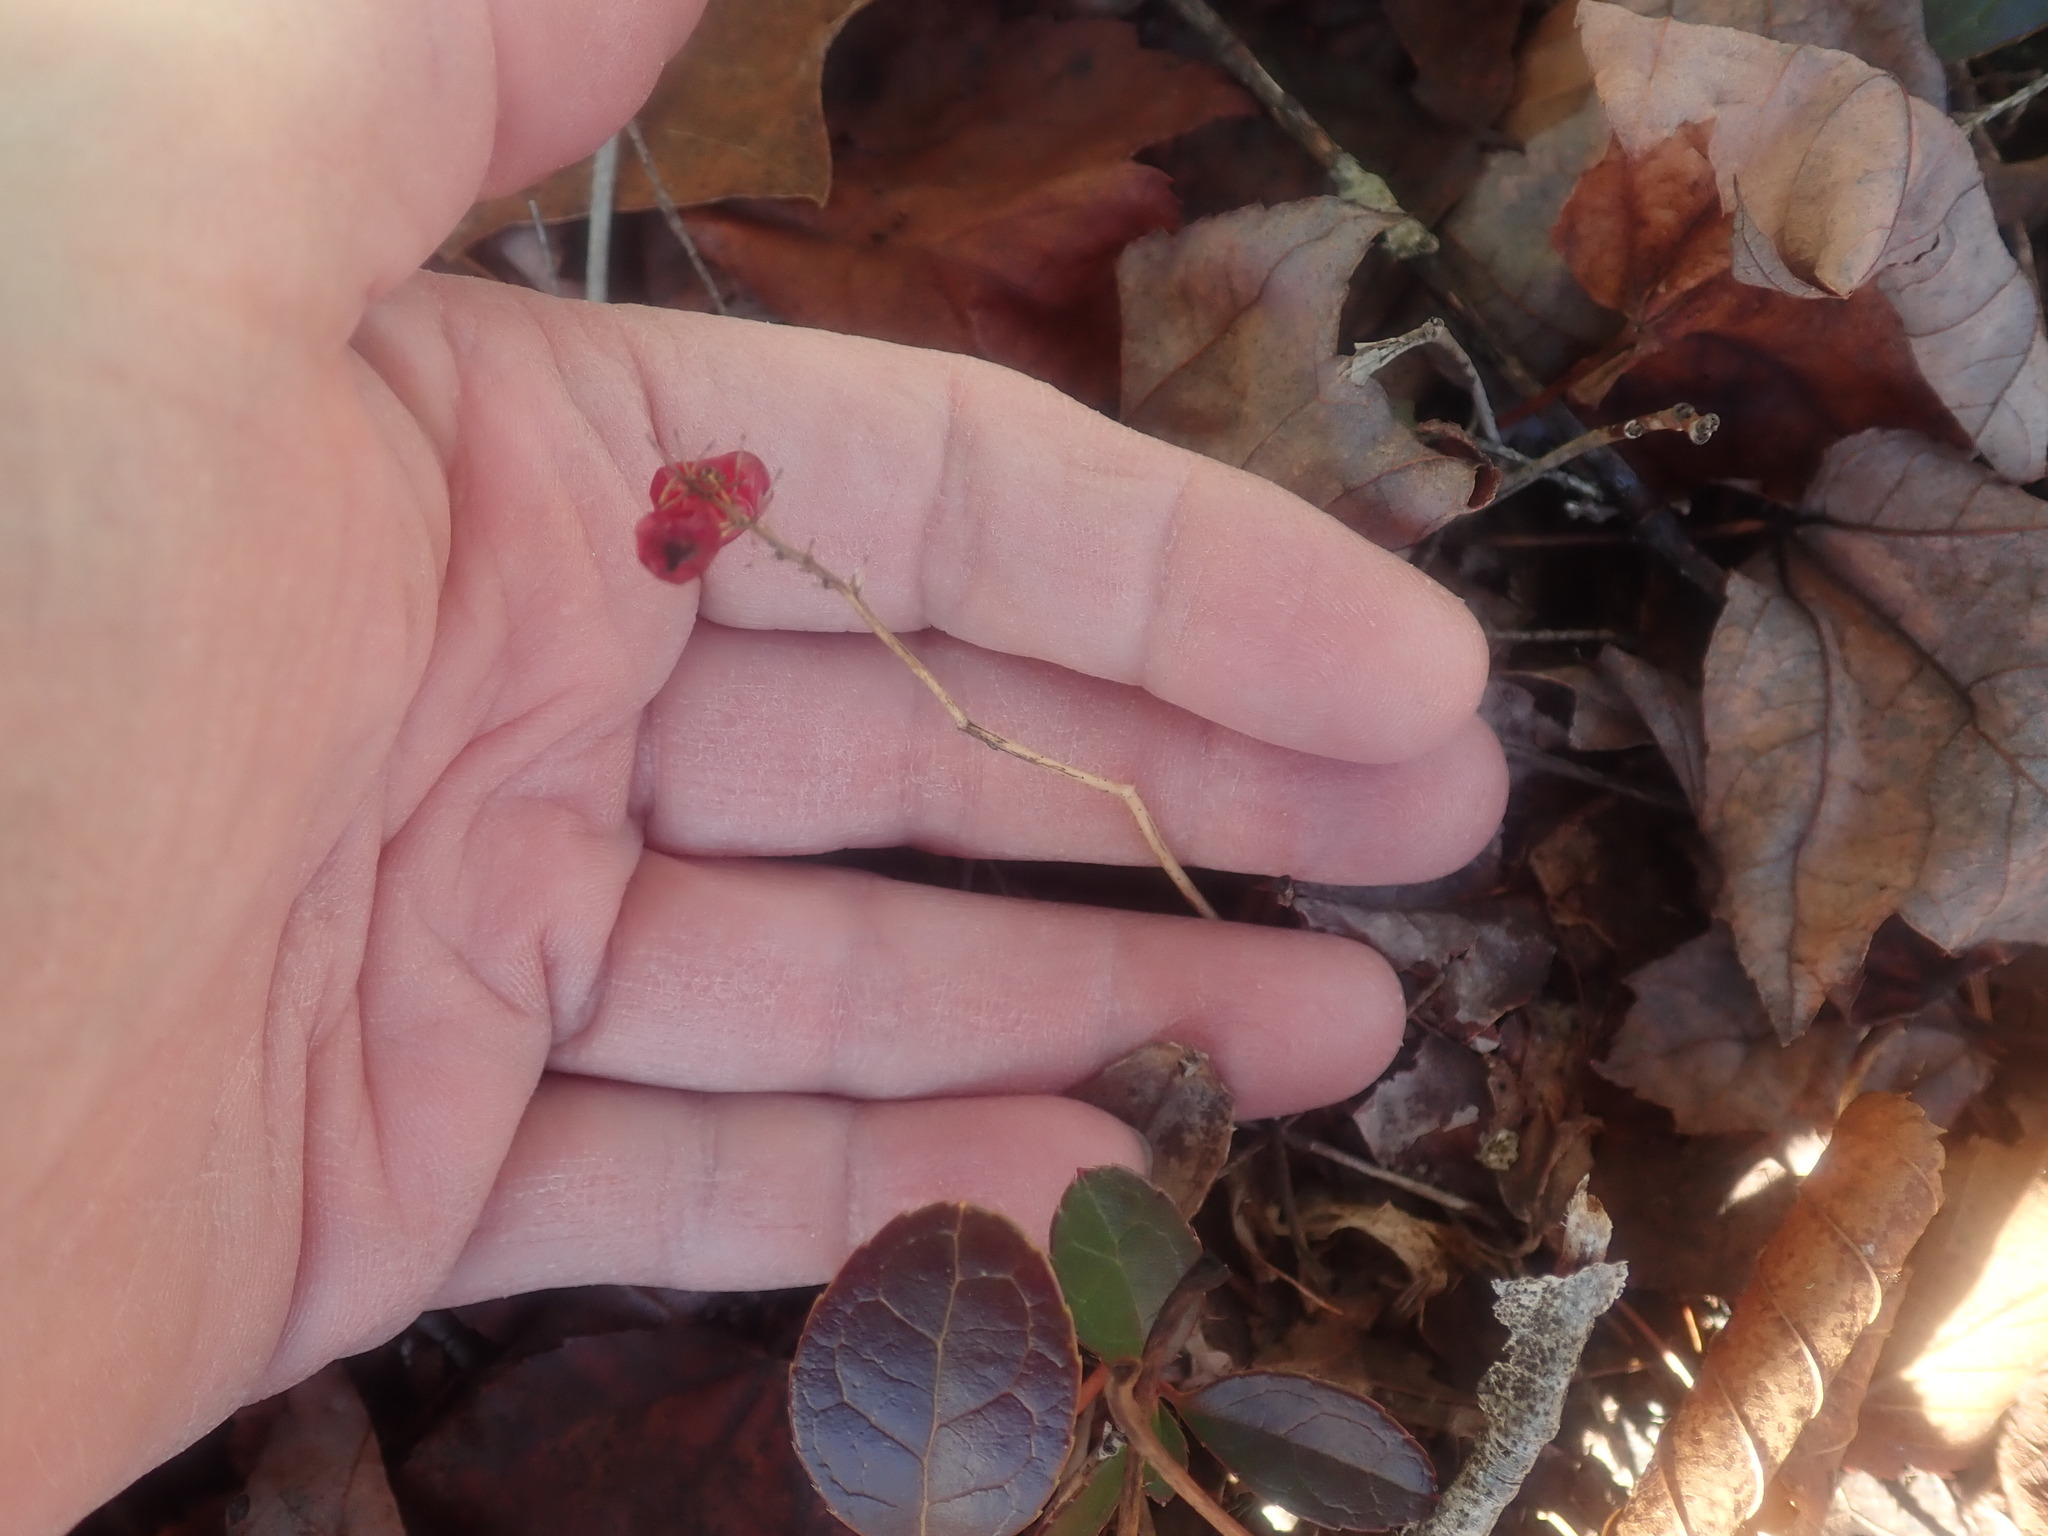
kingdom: Plantae
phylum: Tracheophyta
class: Liliopsida
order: Asparagales
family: Asparagaceae
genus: Maianthemum
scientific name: Maianthemum canadense
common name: False lily-of-the-valley
